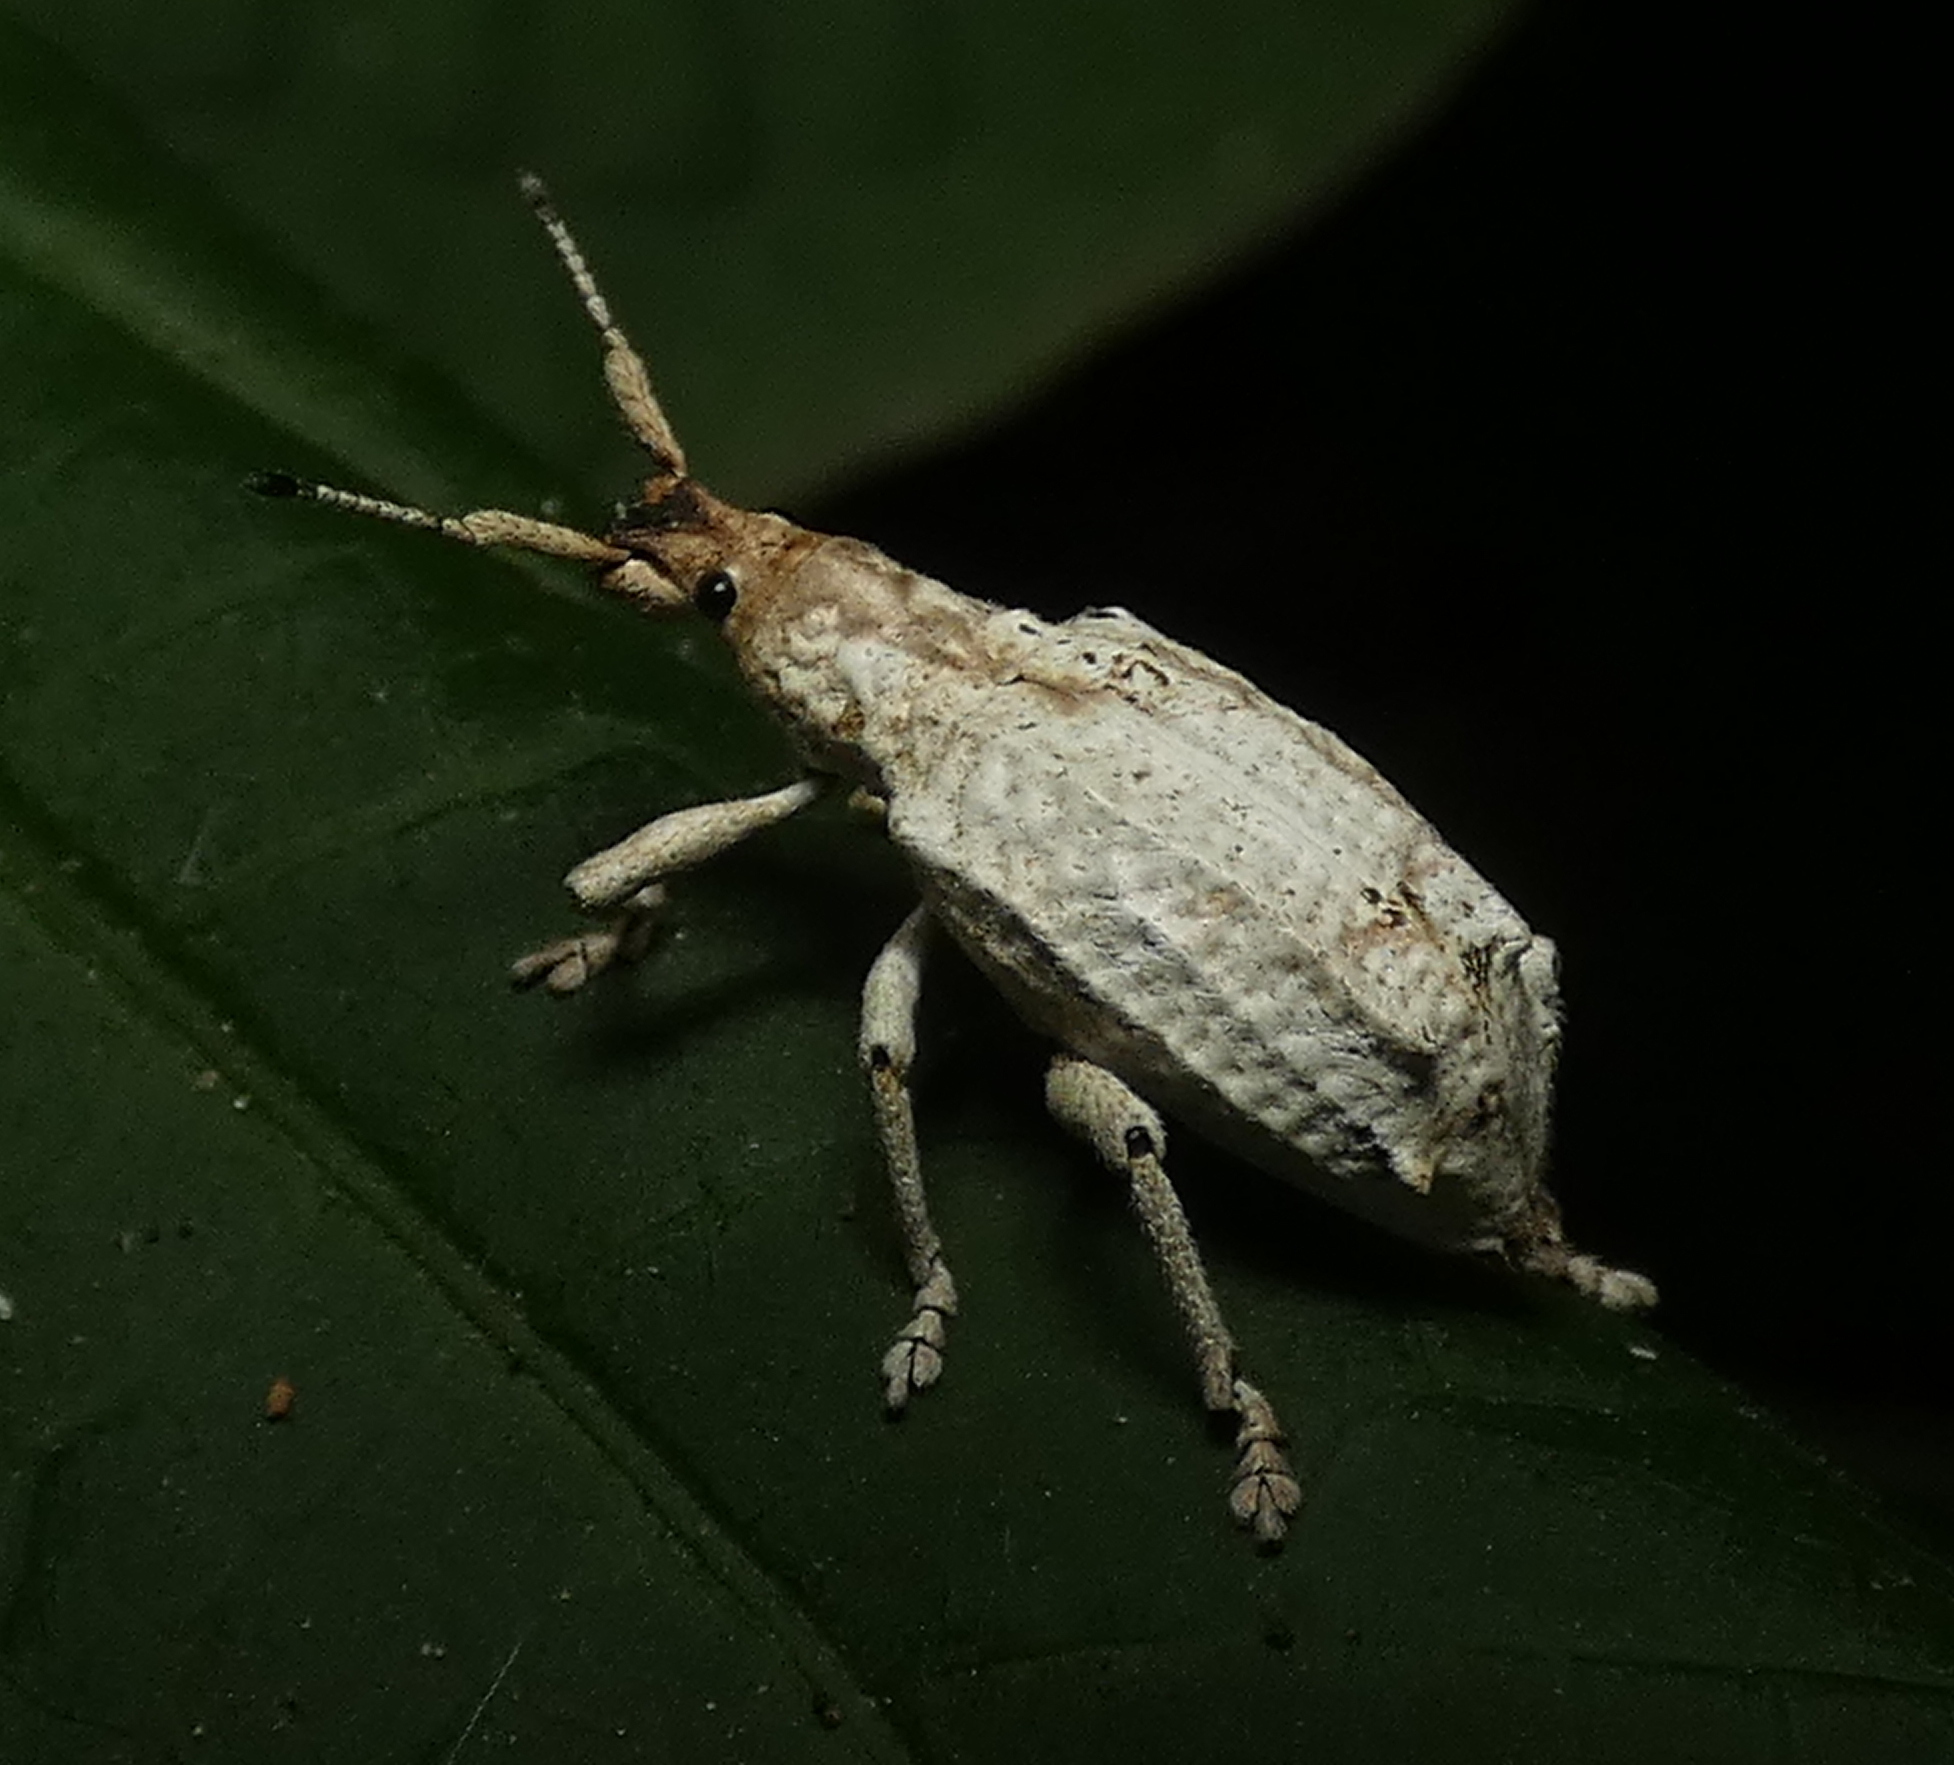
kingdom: Animalia
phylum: Arthropoda
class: Insecta
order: Coleoptera
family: Curculionidae
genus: Compsus
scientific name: Compsus niveus
